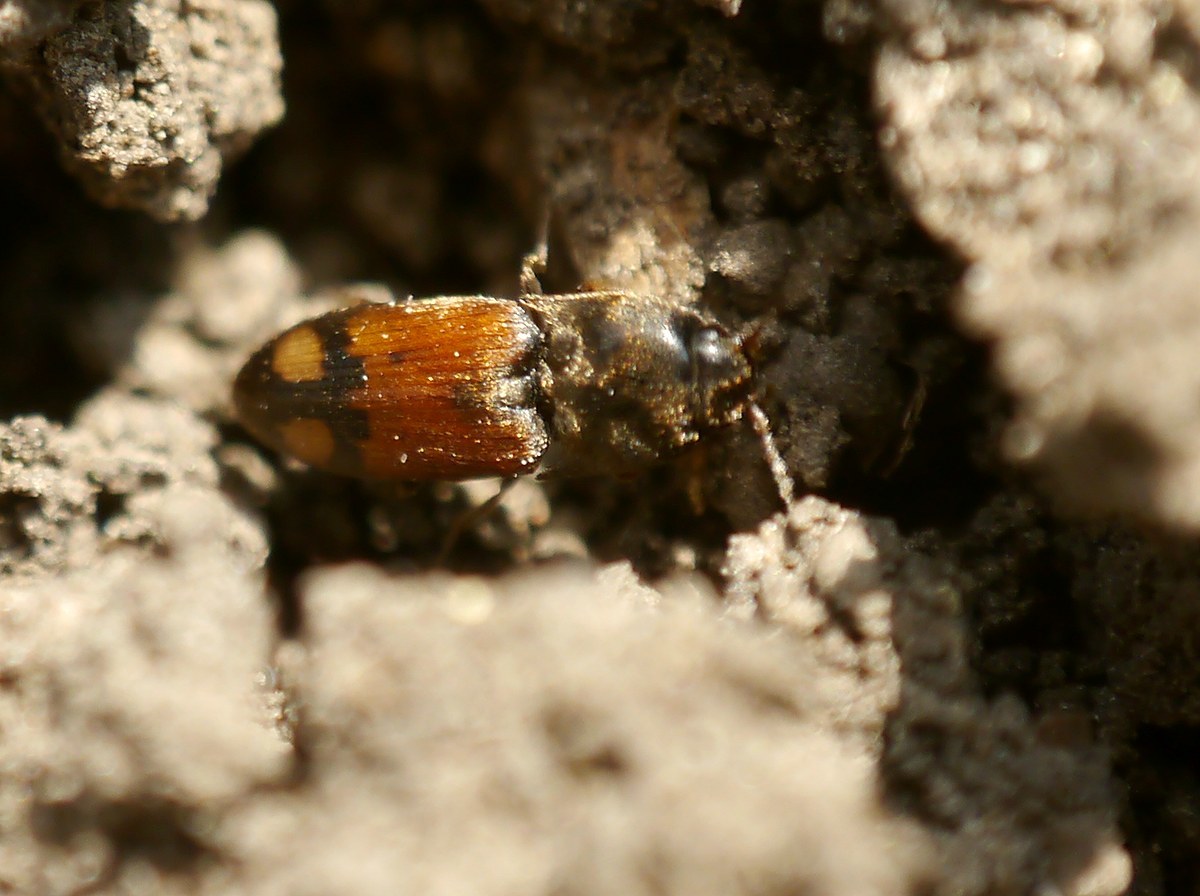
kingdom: Animalia
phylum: Arthropoda
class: Insecta
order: Coleoptera
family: Elateridae
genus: Drasterius
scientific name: Drasterius bimaculatus
